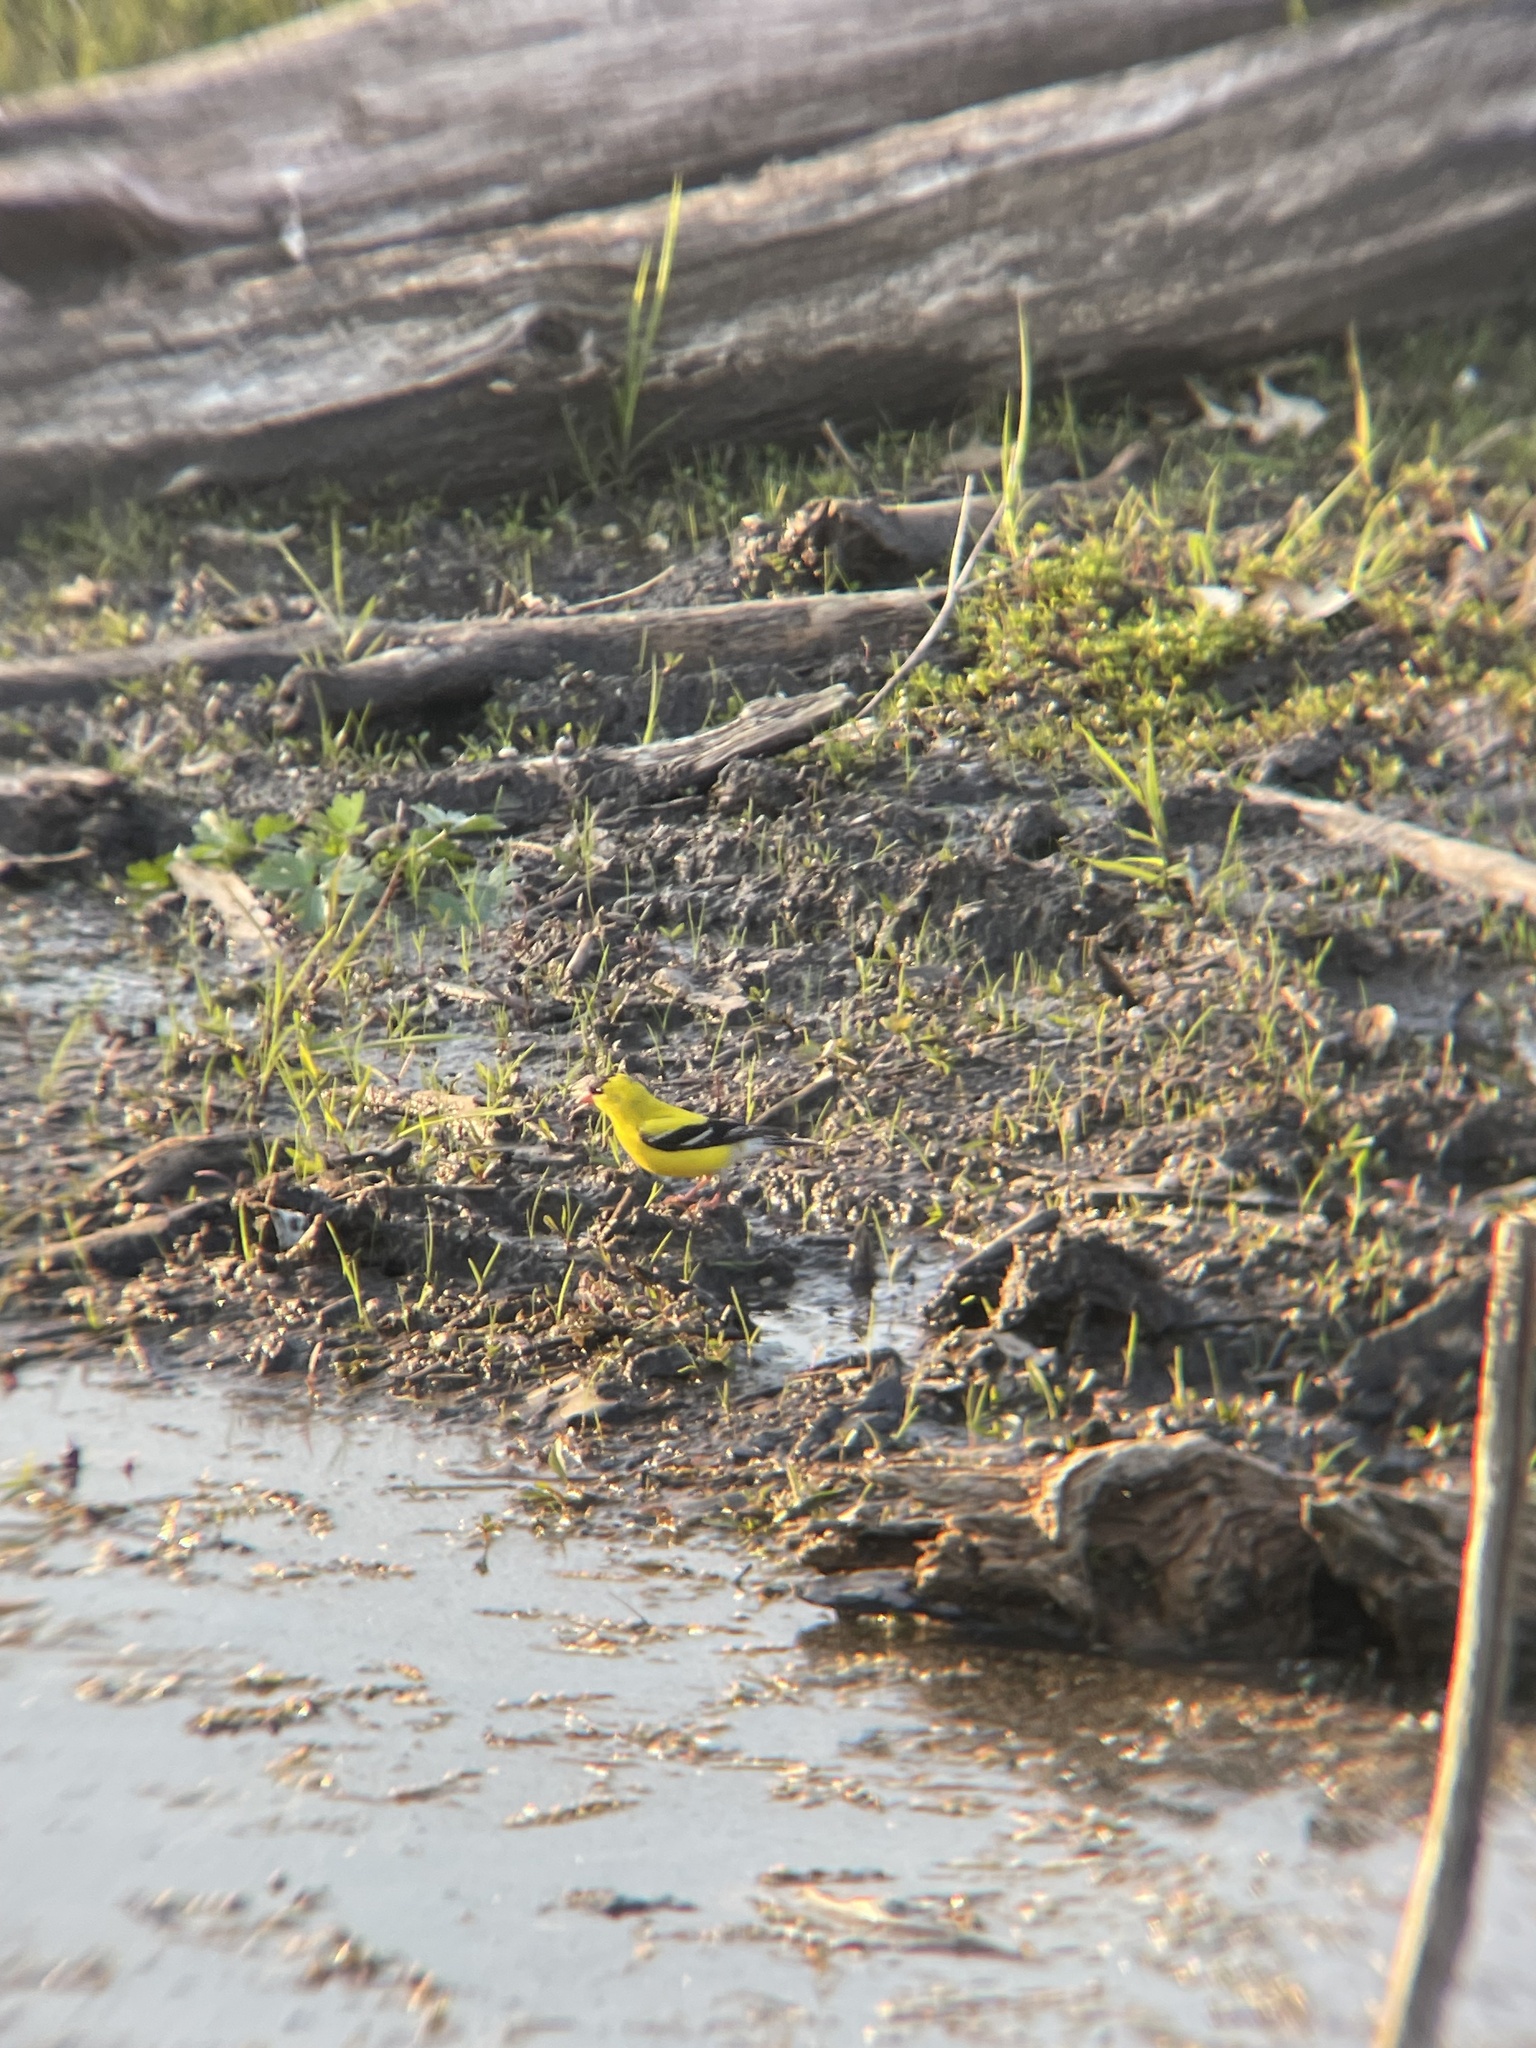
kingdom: Animalia
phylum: Chordata
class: Aves
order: Passeriformes
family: Fringillidae
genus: Spinus
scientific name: Spinus tristis
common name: American goldfinch
